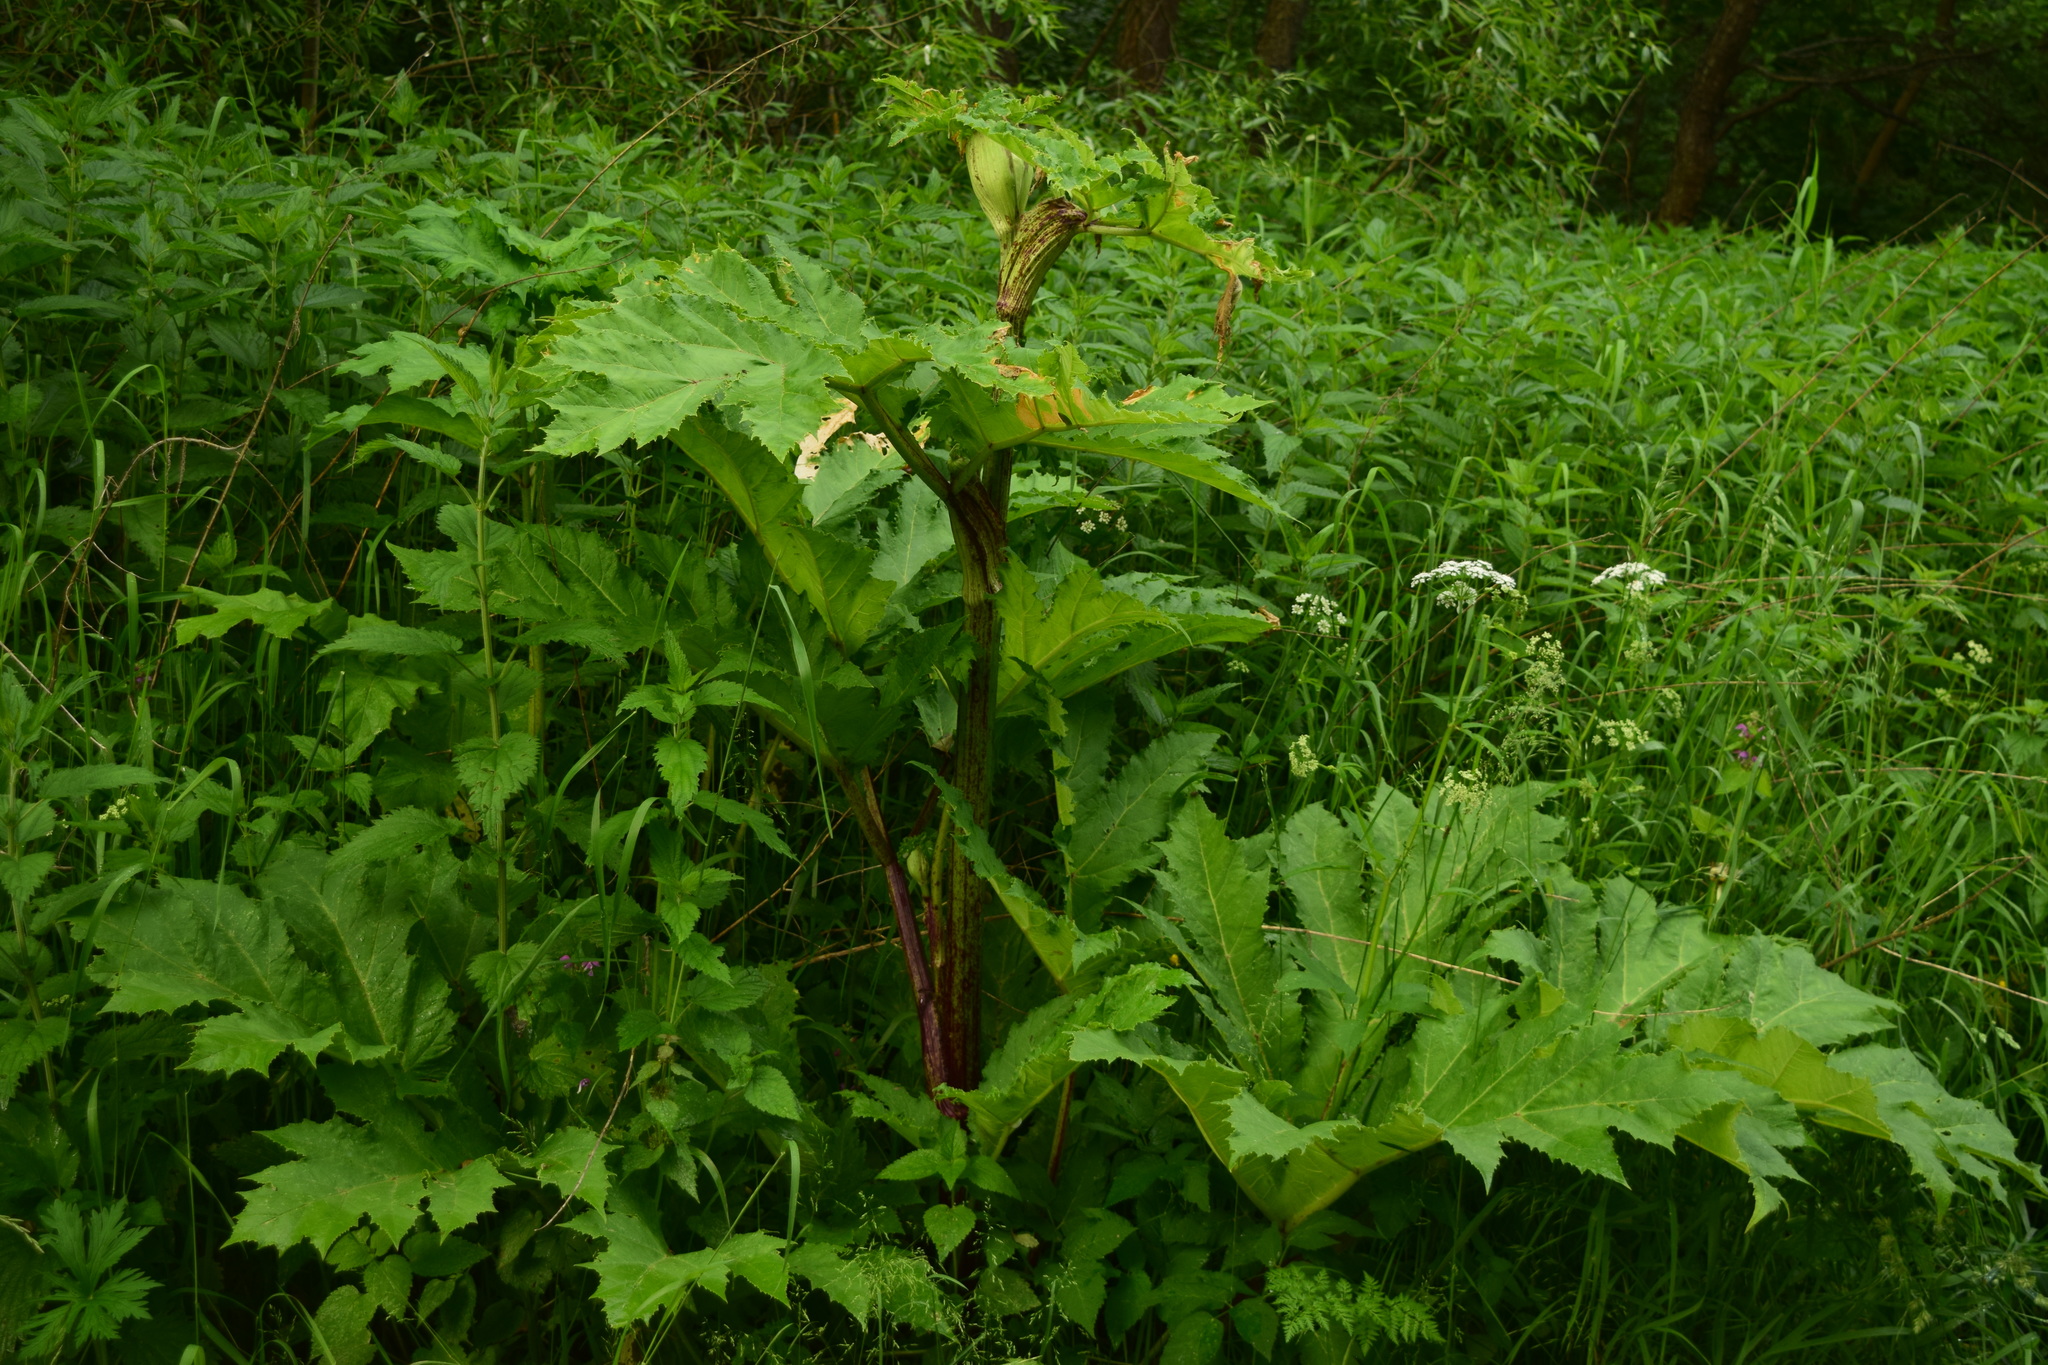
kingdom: Plantae
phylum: Tracheophyta
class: Magnoliopsida
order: Apiales
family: Apiaceae
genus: Heracleum
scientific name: Heracleum sosnowskyi
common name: Sosnowsky's hogweed
